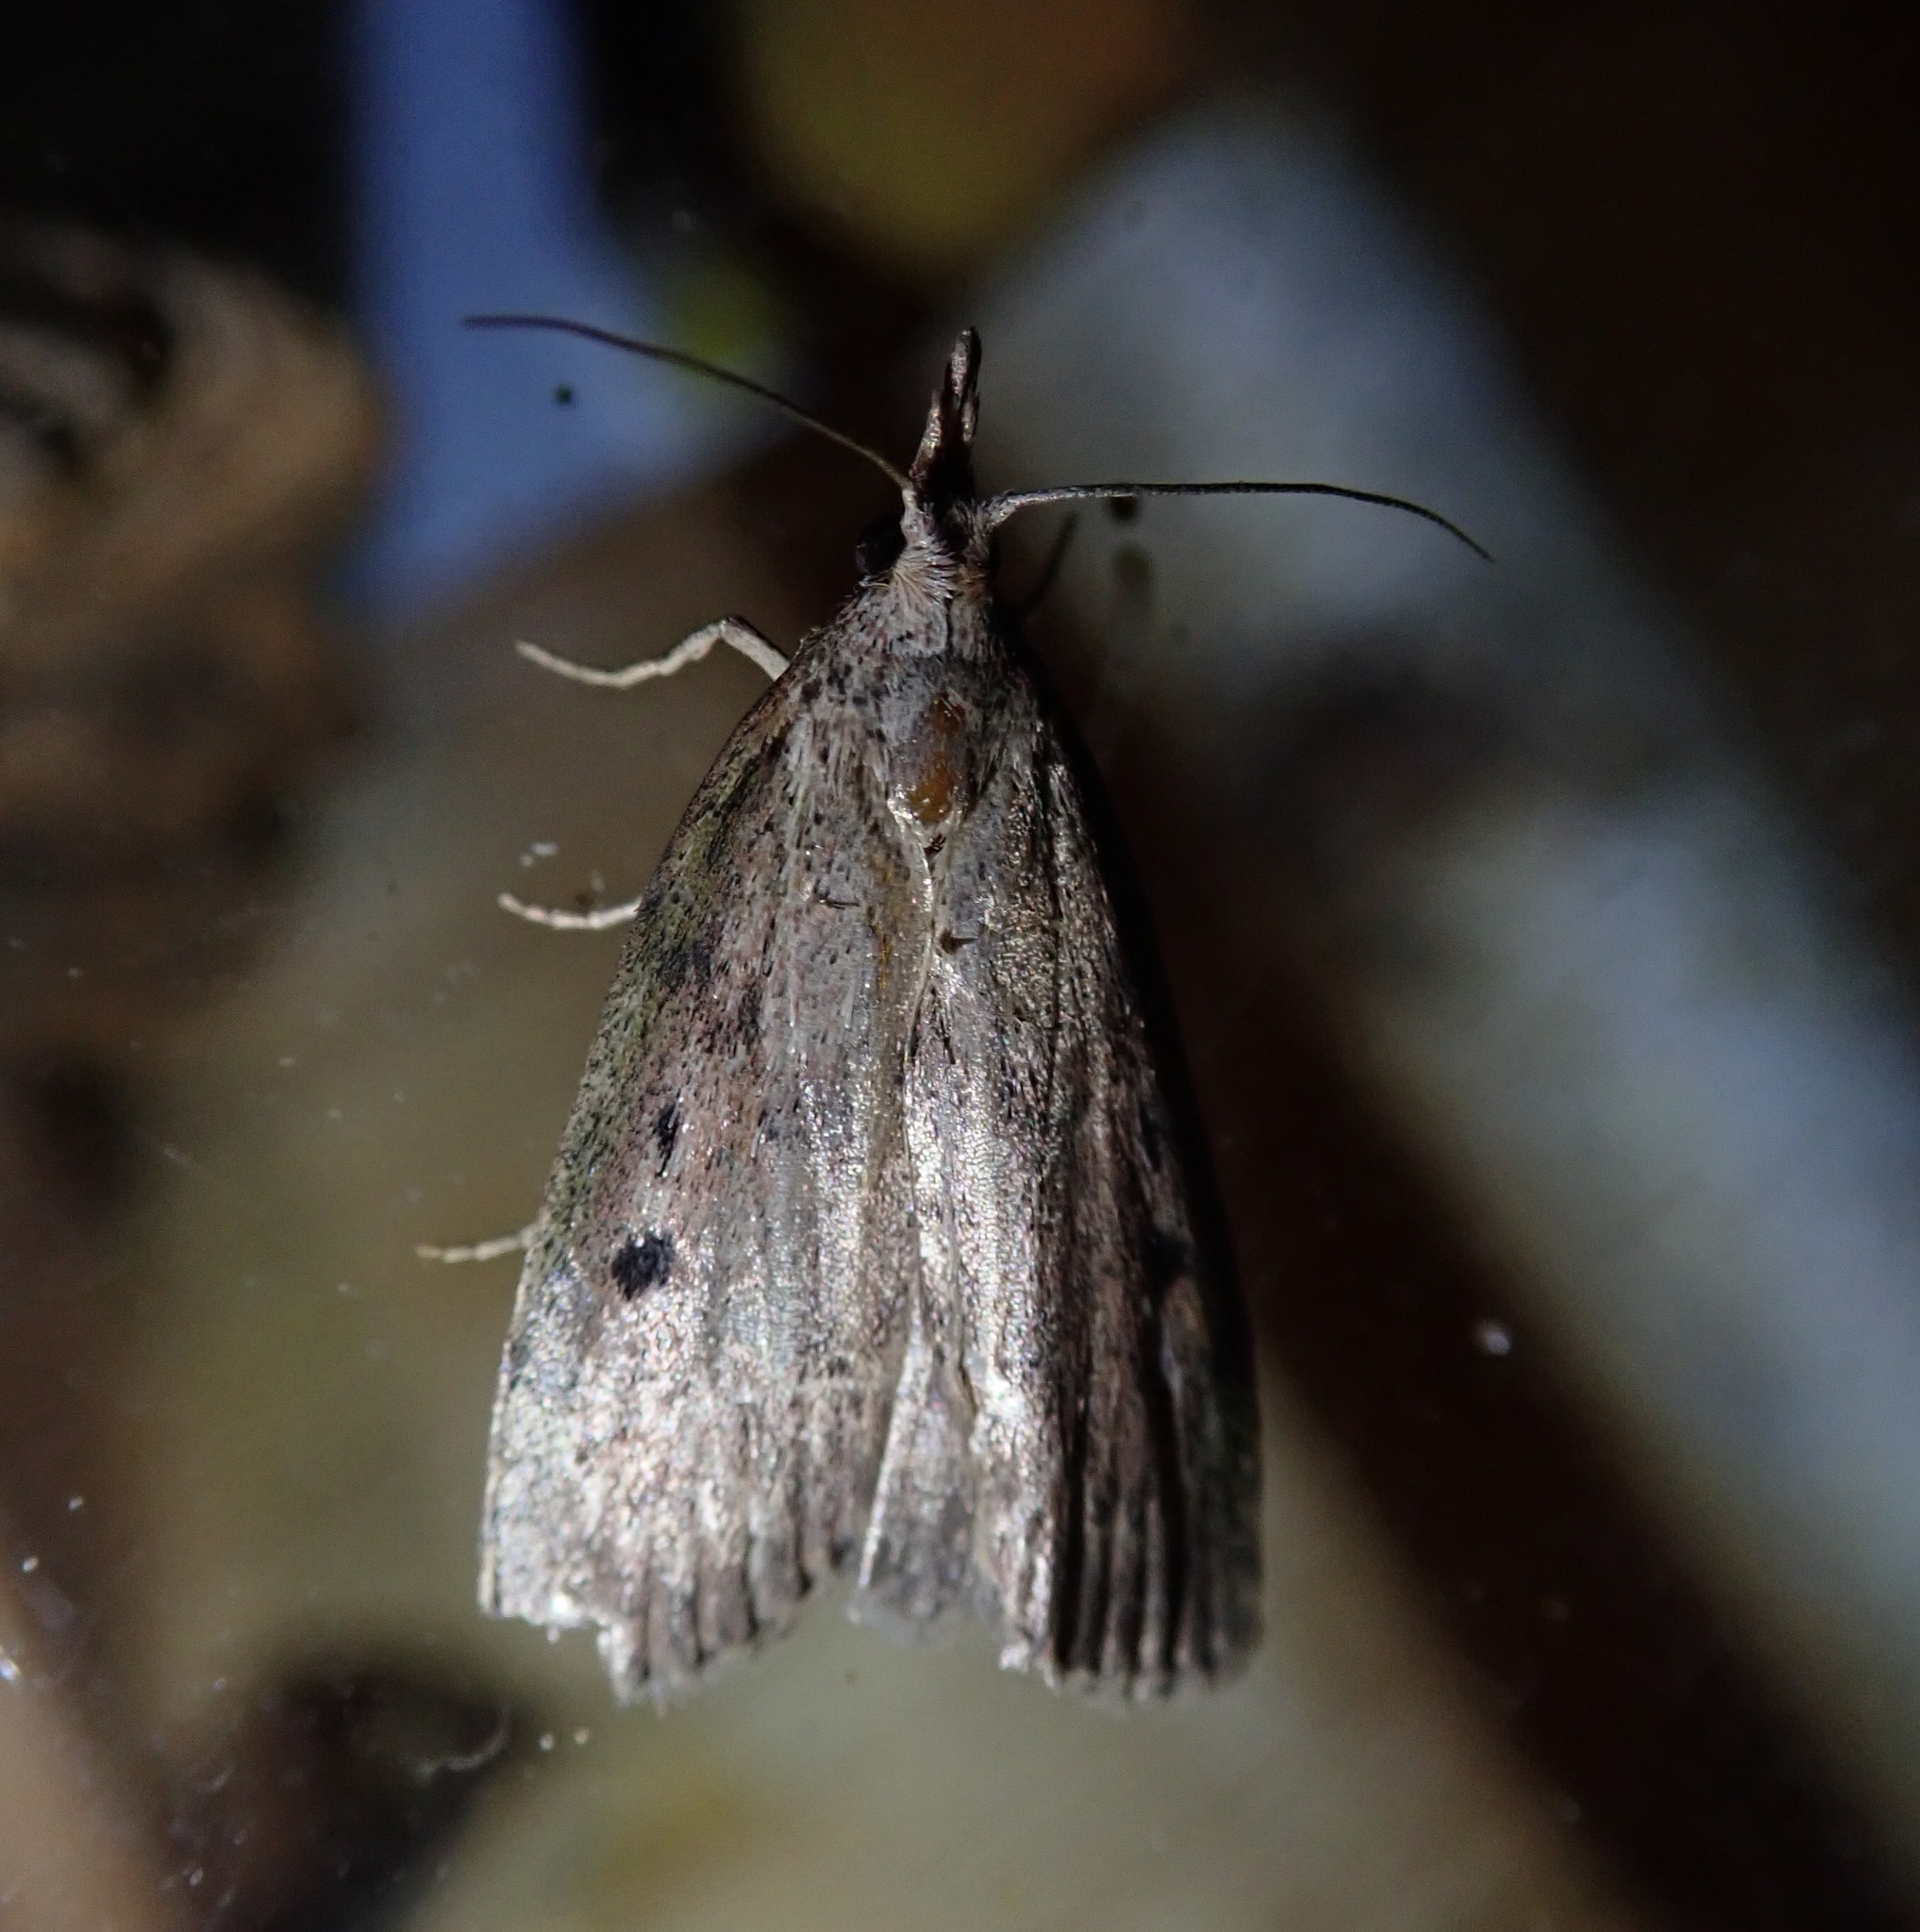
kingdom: Animalia
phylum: Arthropoda
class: Insecta
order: Lepidoptera
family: Pyralidae
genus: Aphomia
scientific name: Aphomia sociella
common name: Bee moth
